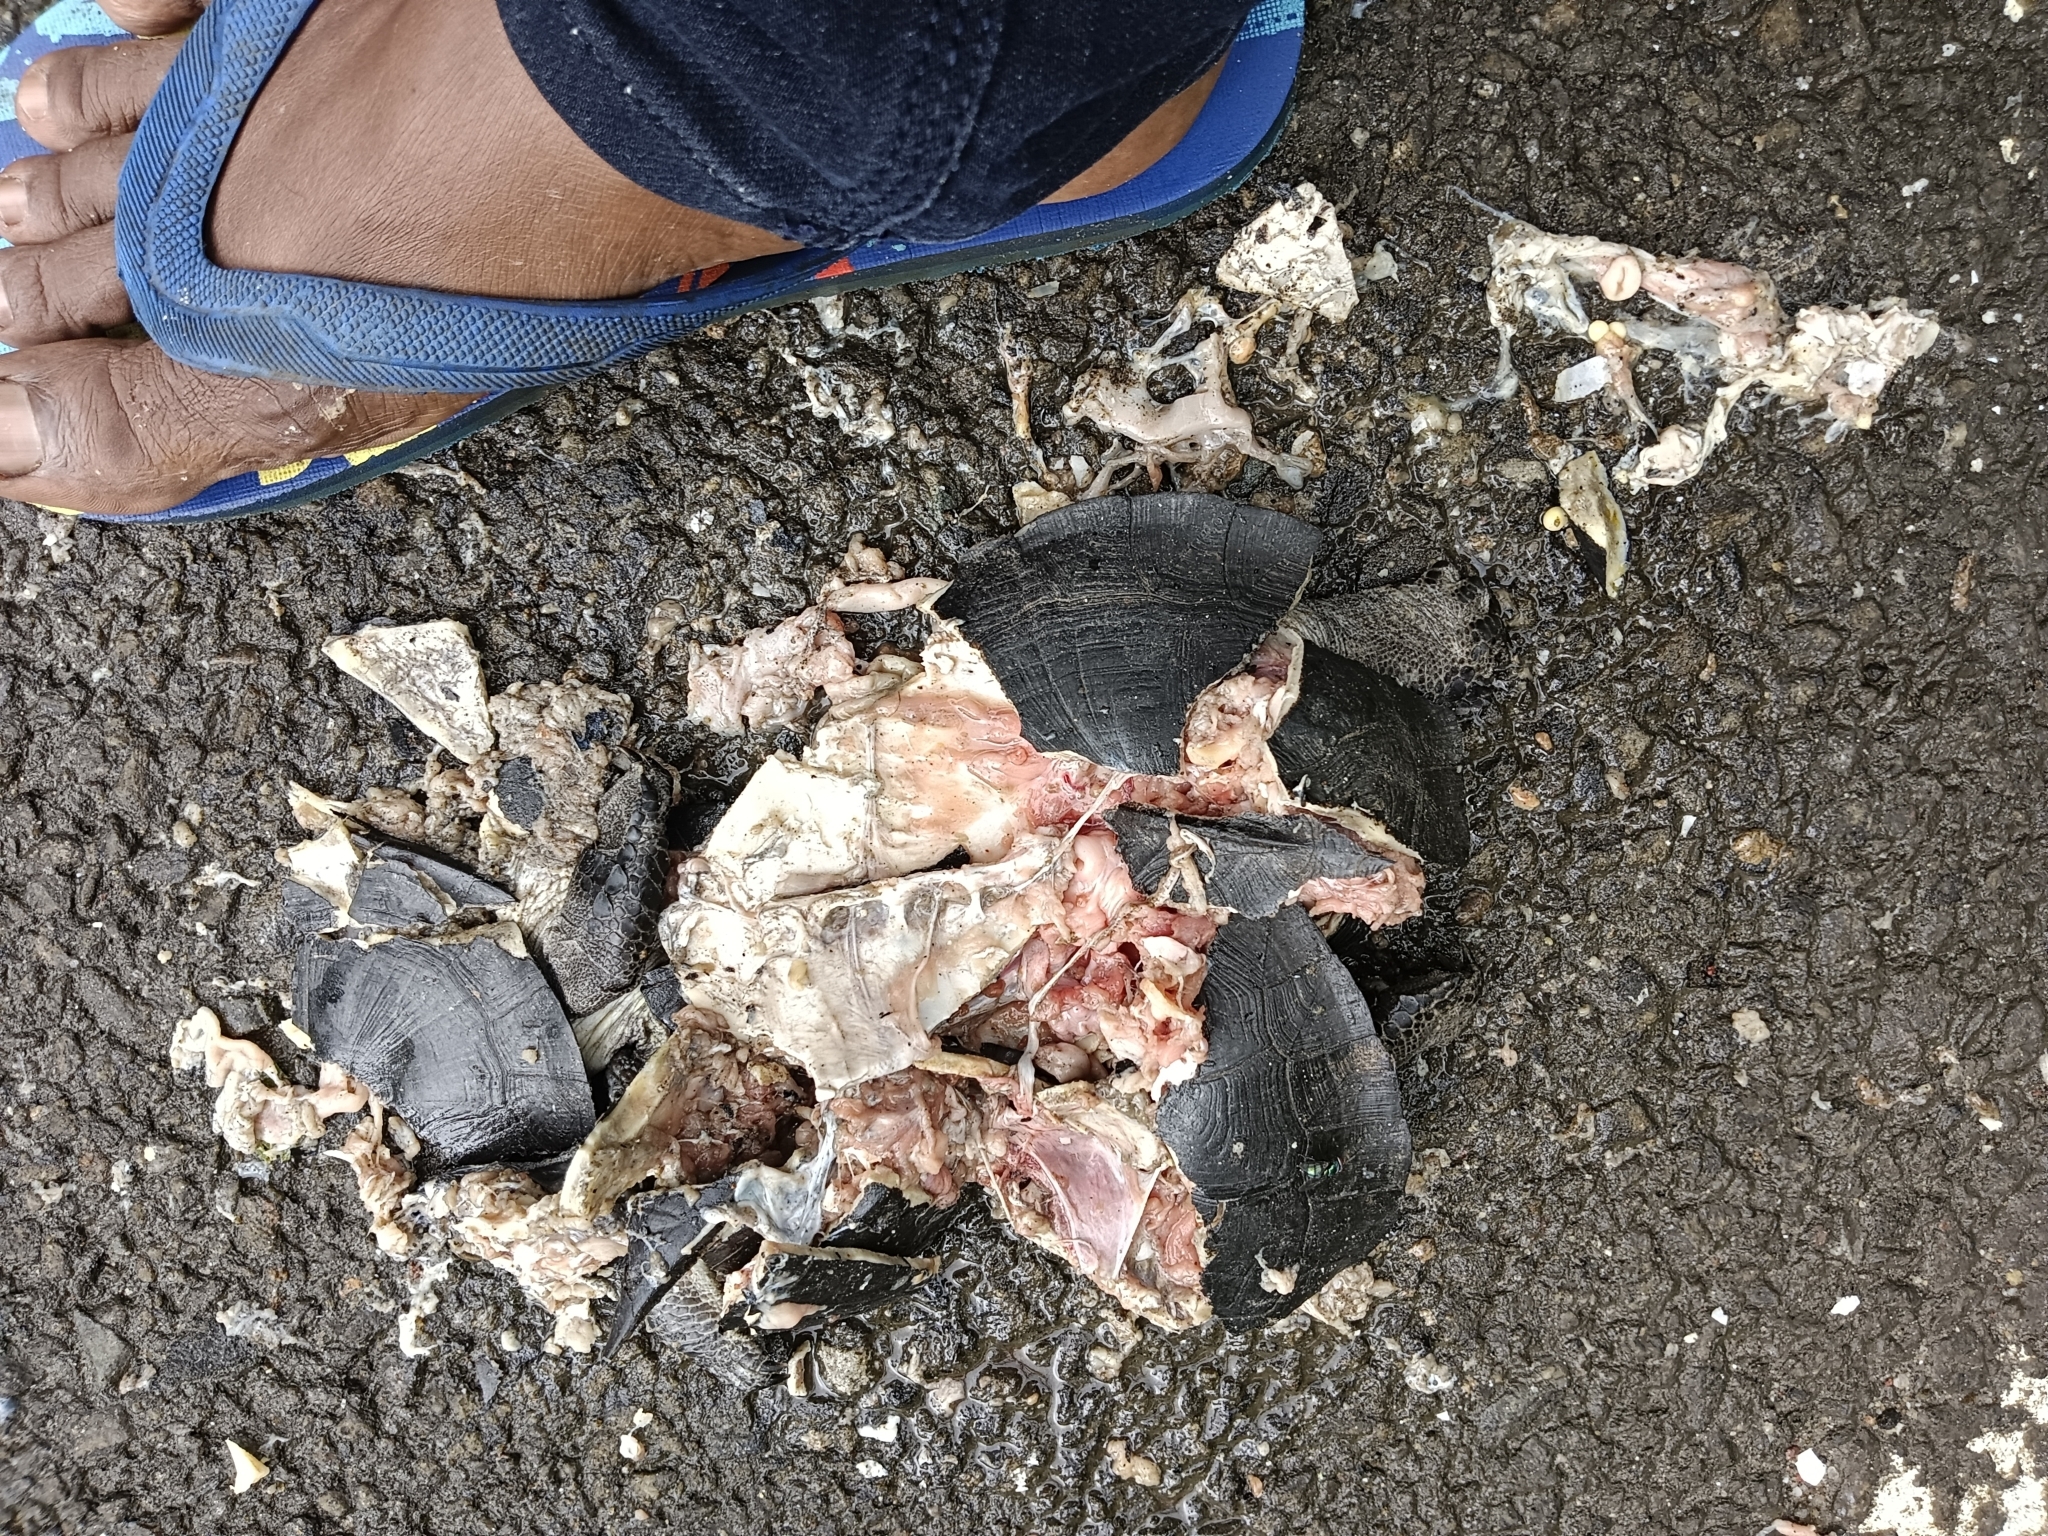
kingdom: Animalia
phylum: Chordata
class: Testudines
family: Geoemydidae
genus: Melanochelys
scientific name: Melanochelys trijuga
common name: Indian black turtle
